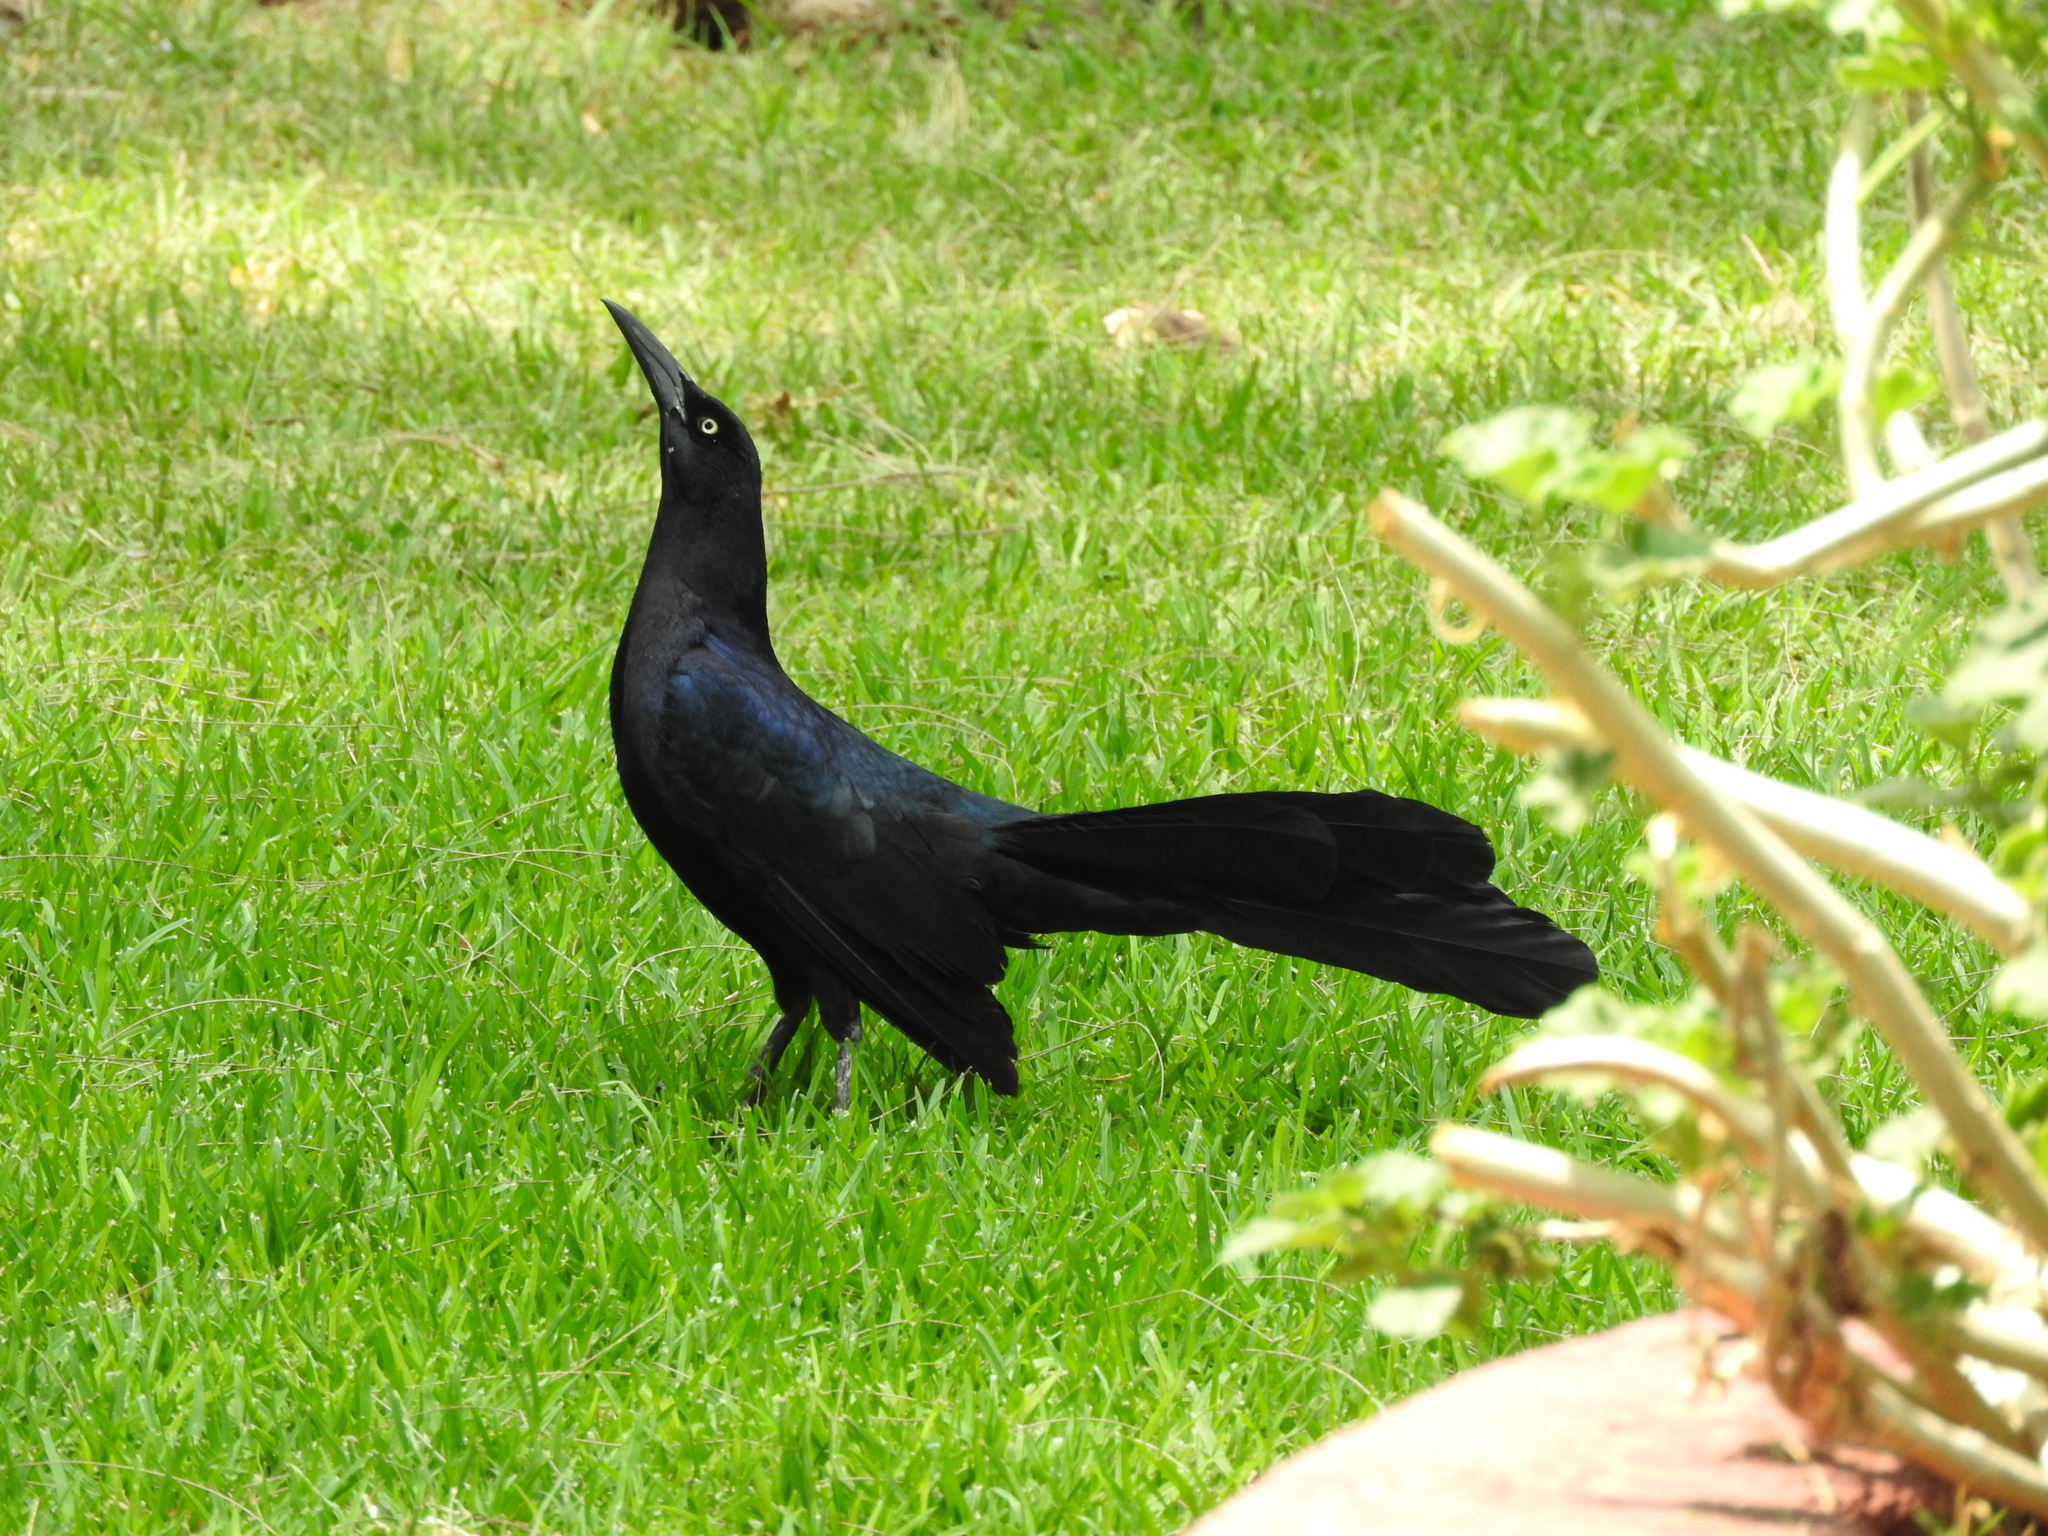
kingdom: Animalia
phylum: Chordata
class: Aves
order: Passeriformes
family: Icteridae
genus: Quiscalus
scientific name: Quiscalus mexicanus
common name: Great-tailed grackle
